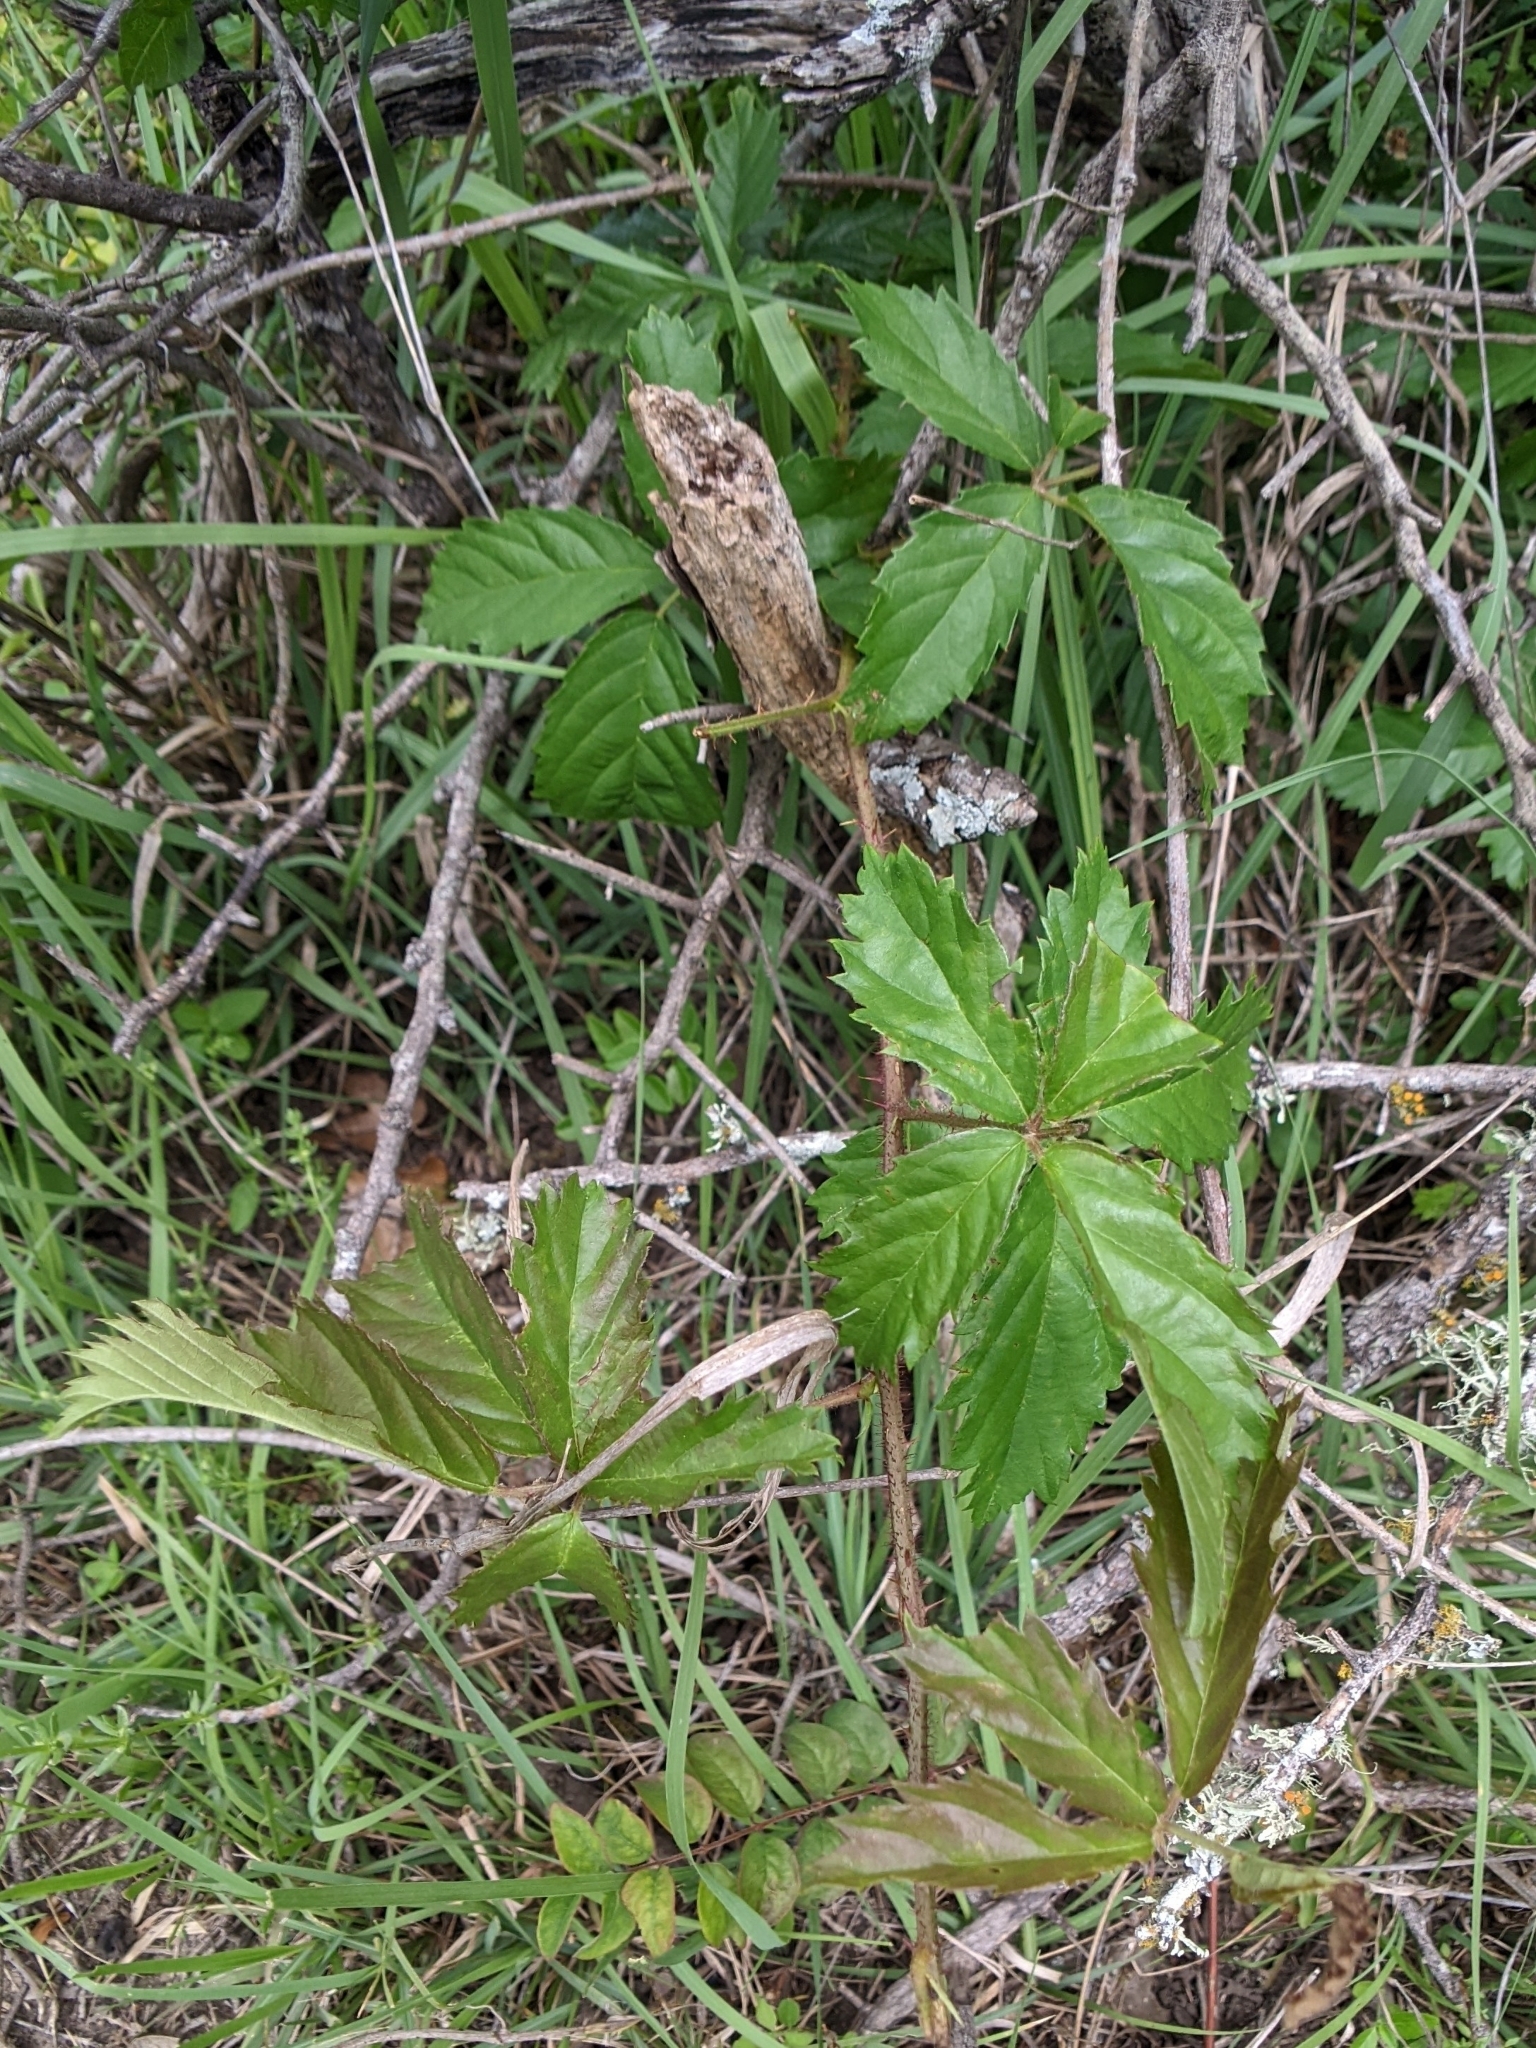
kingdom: Plantae
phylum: Tracheophyta
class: Magnoliopsida
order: Rosales
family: Rosaceae
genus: Rubus
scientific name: Rubus trivialis
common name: Southern dewberry
